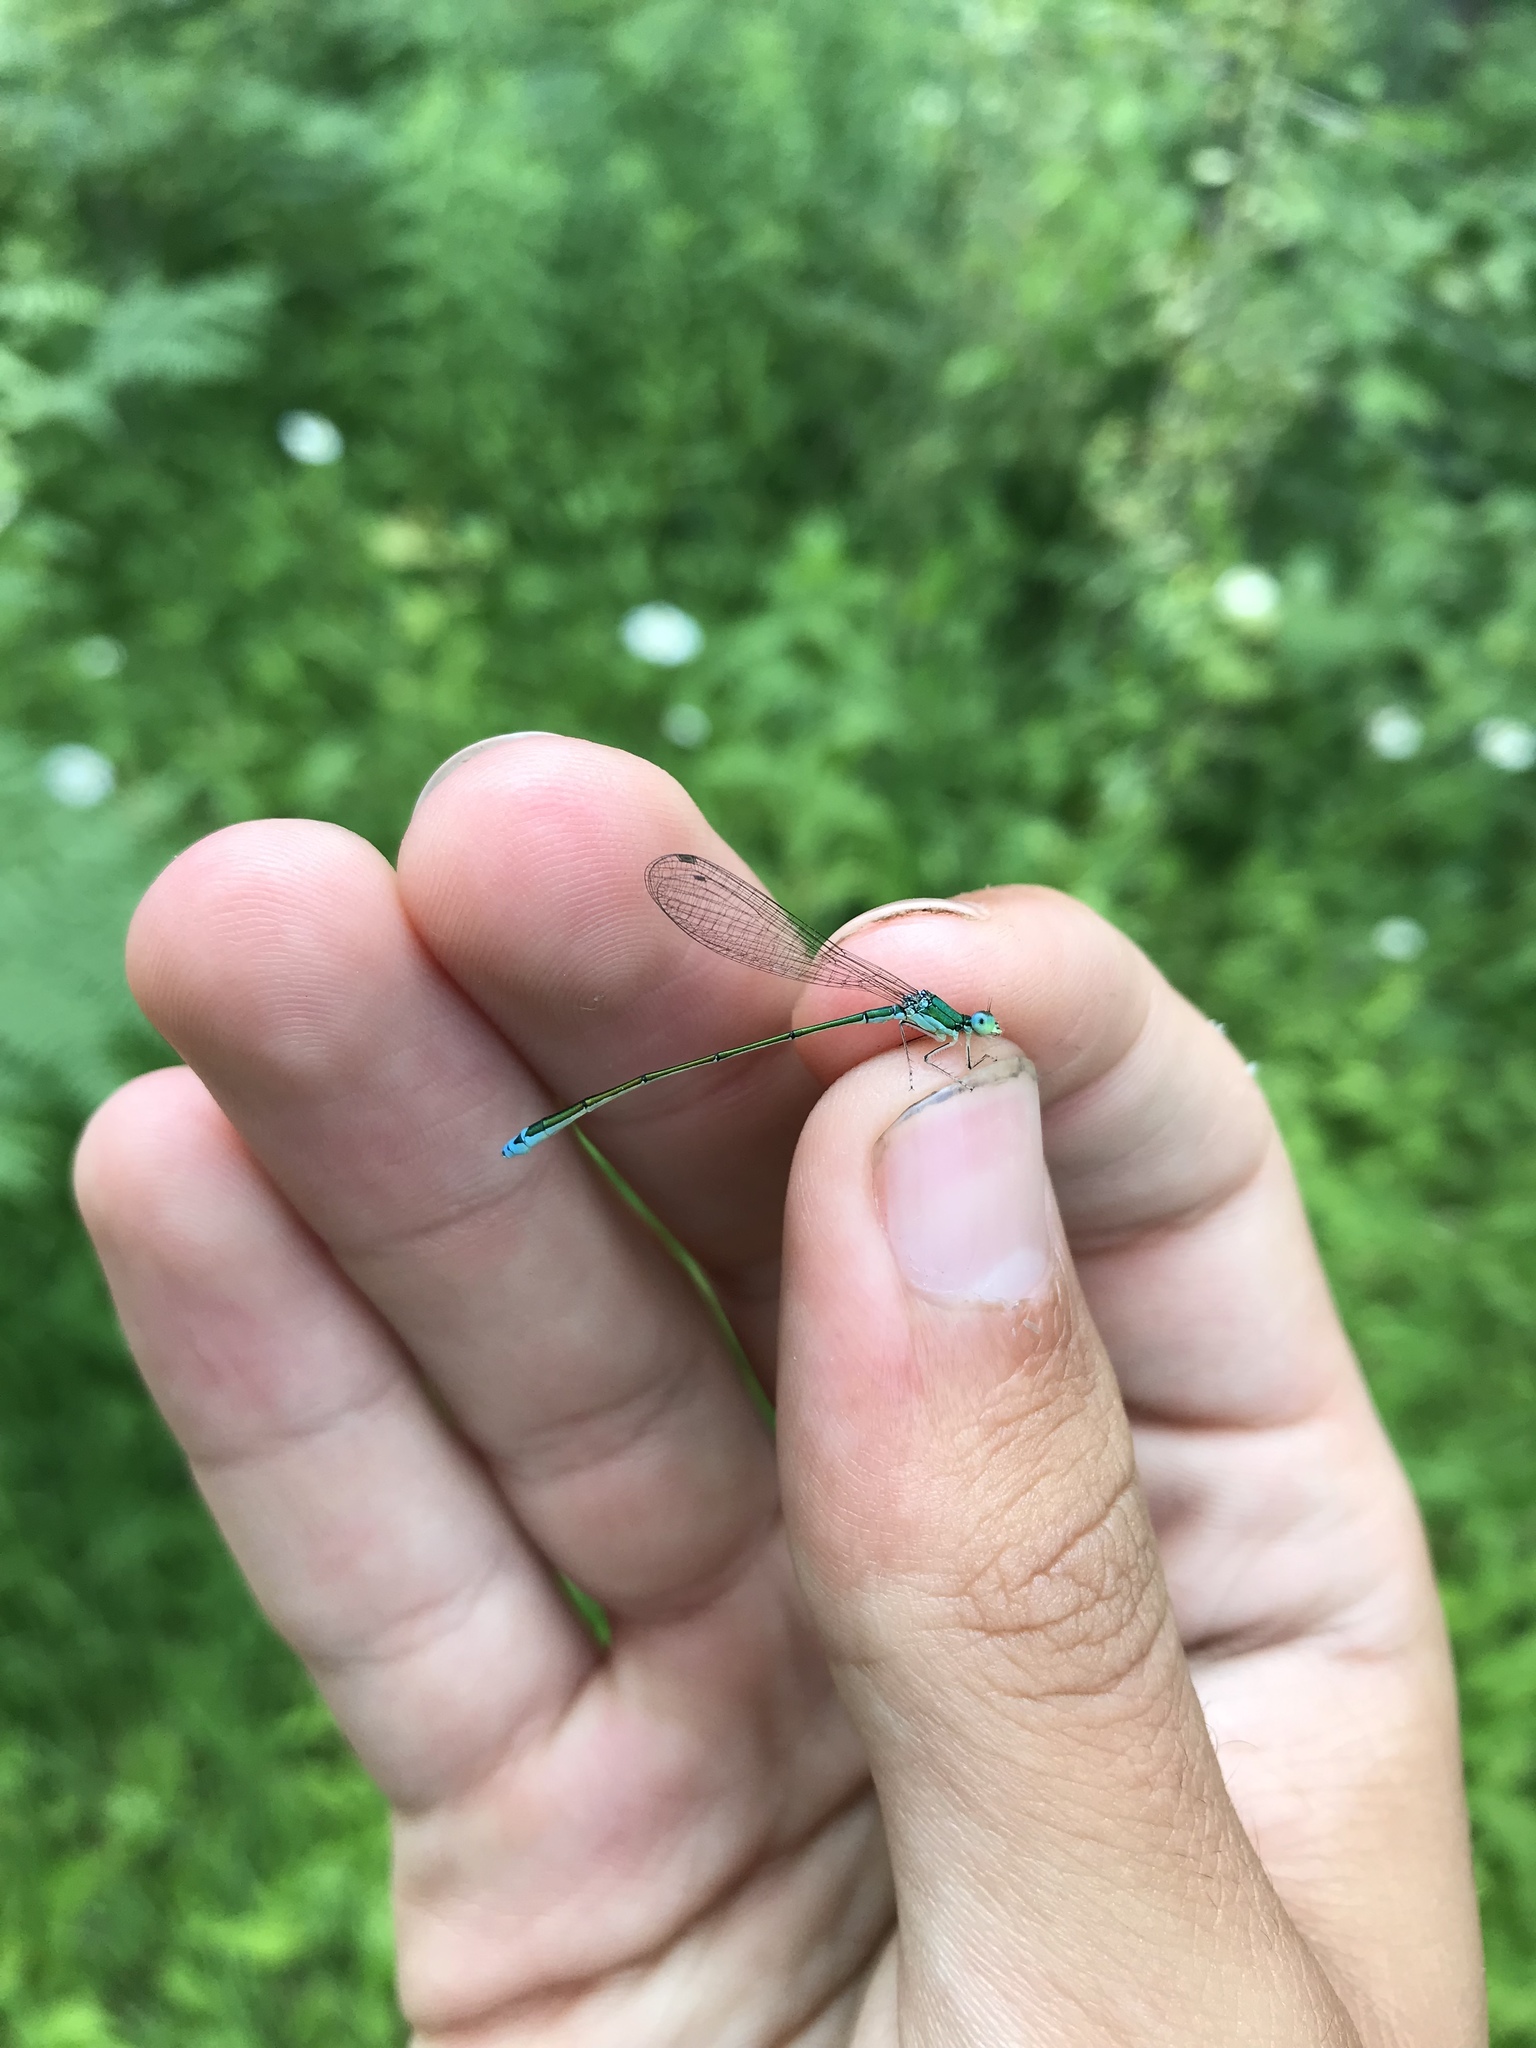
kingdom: Animalia
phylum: Arthropoda
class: Insecta
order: Odonata
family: Coenagrionidae
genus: Nehalennia
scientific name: Nehalennia irene
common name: Sedge sprite
